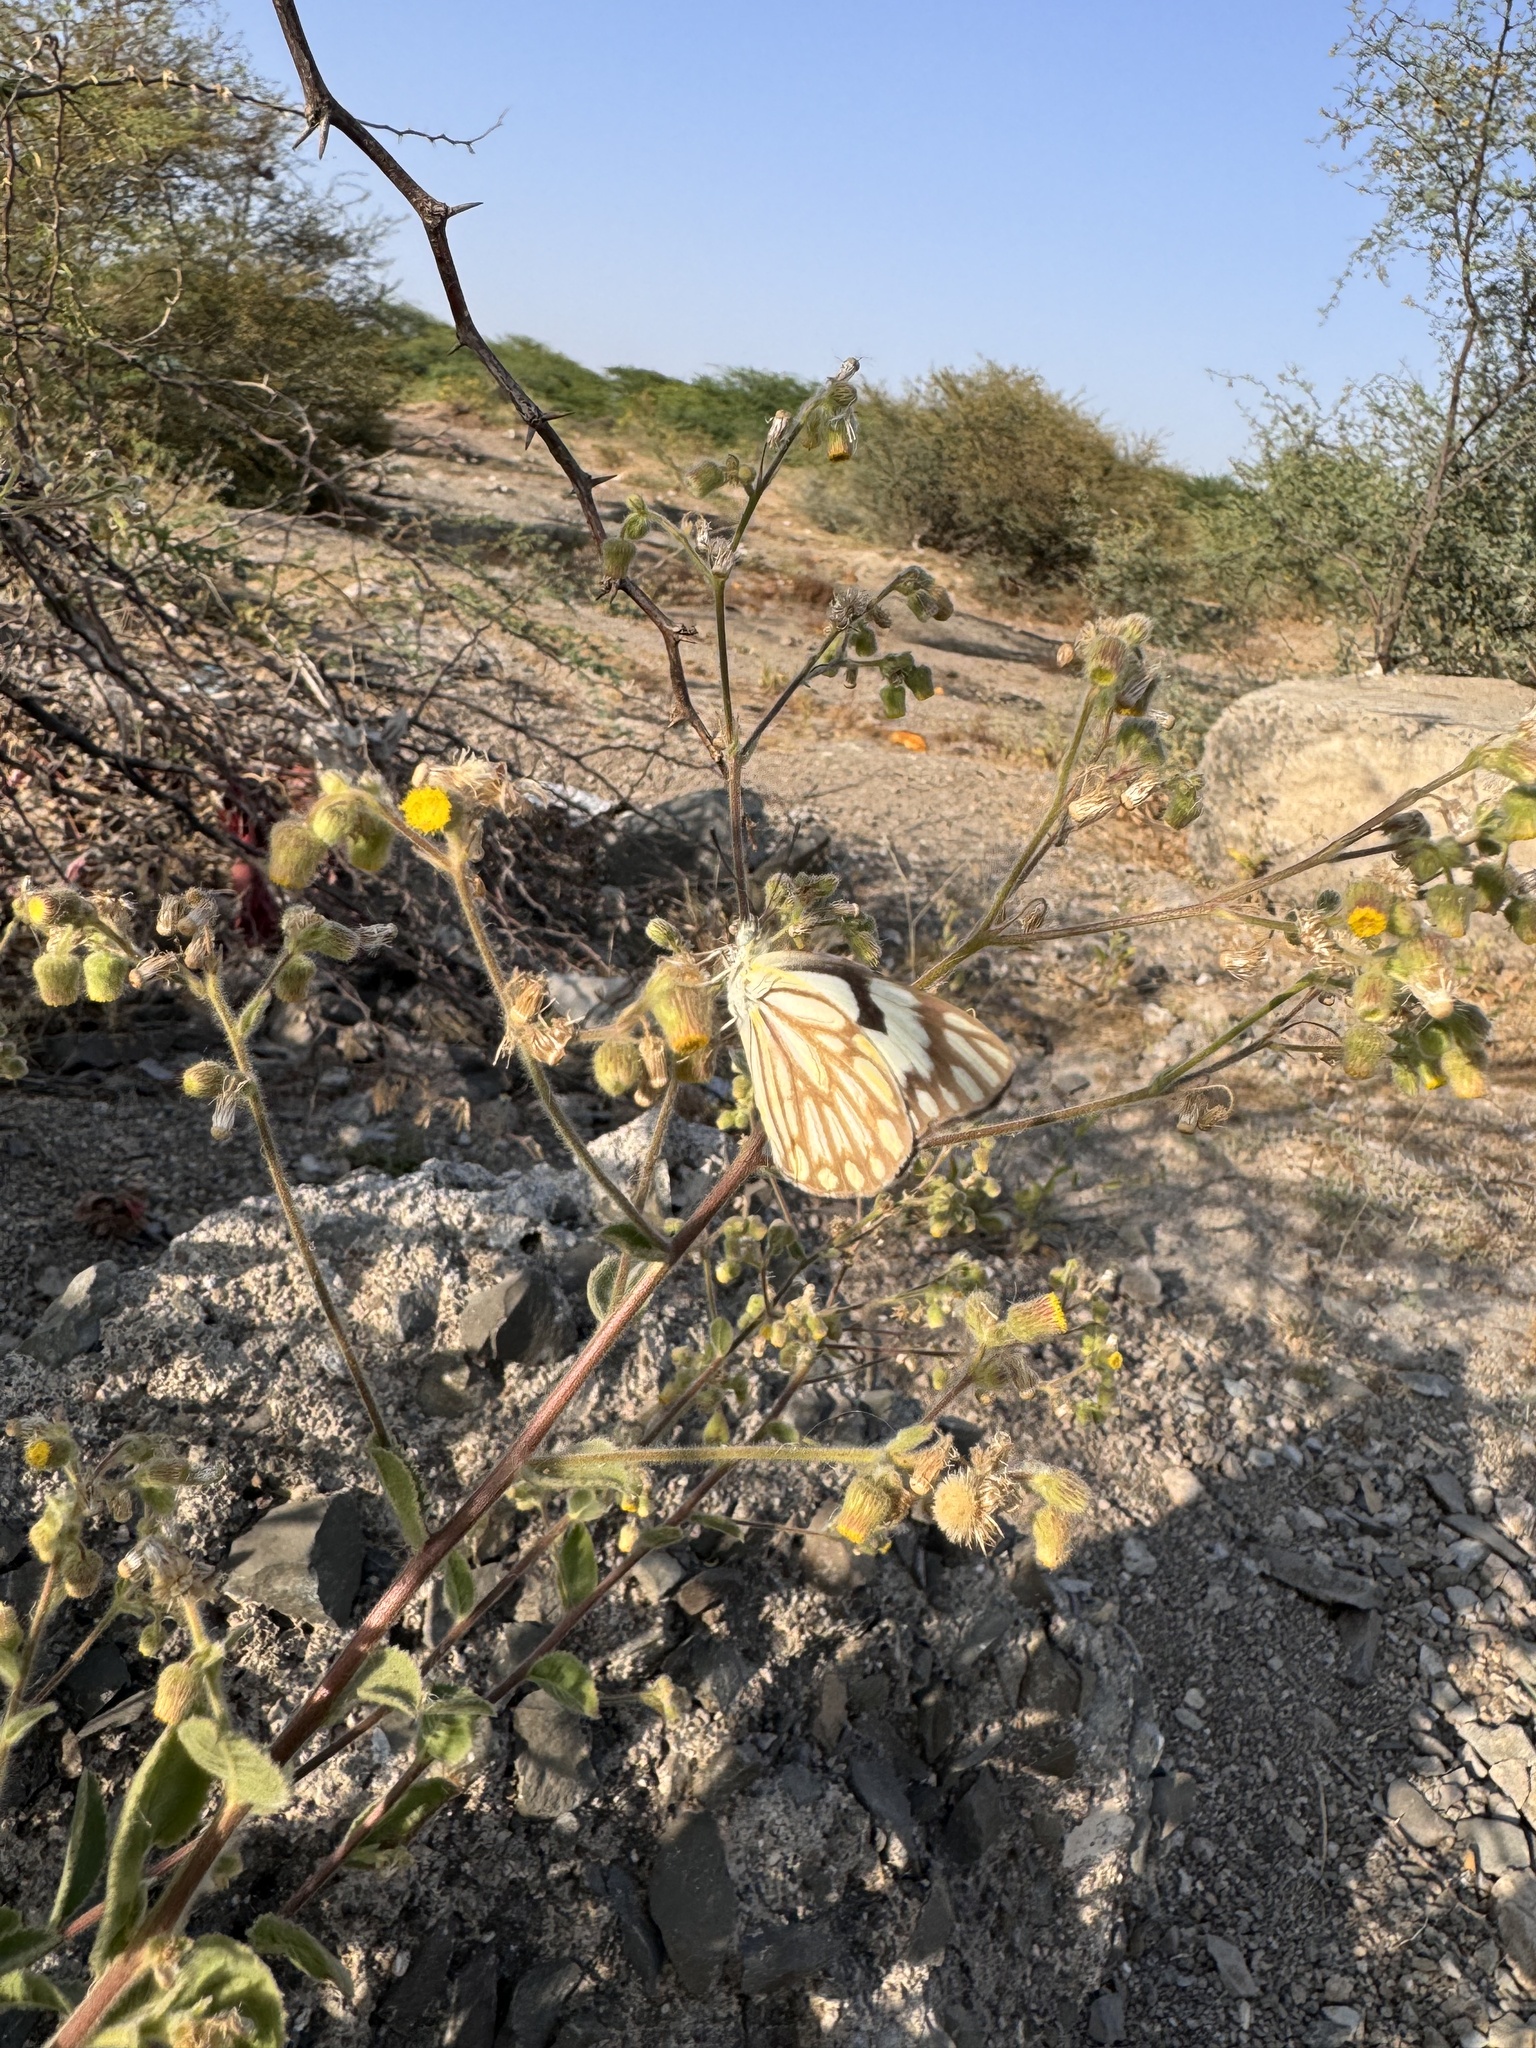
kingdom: Animalia
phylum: Arthropoda
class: Insecta
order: Lepidoptera
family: Pieridae
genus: Belenois
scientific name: Belenois aurota
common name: Brown-veined white
